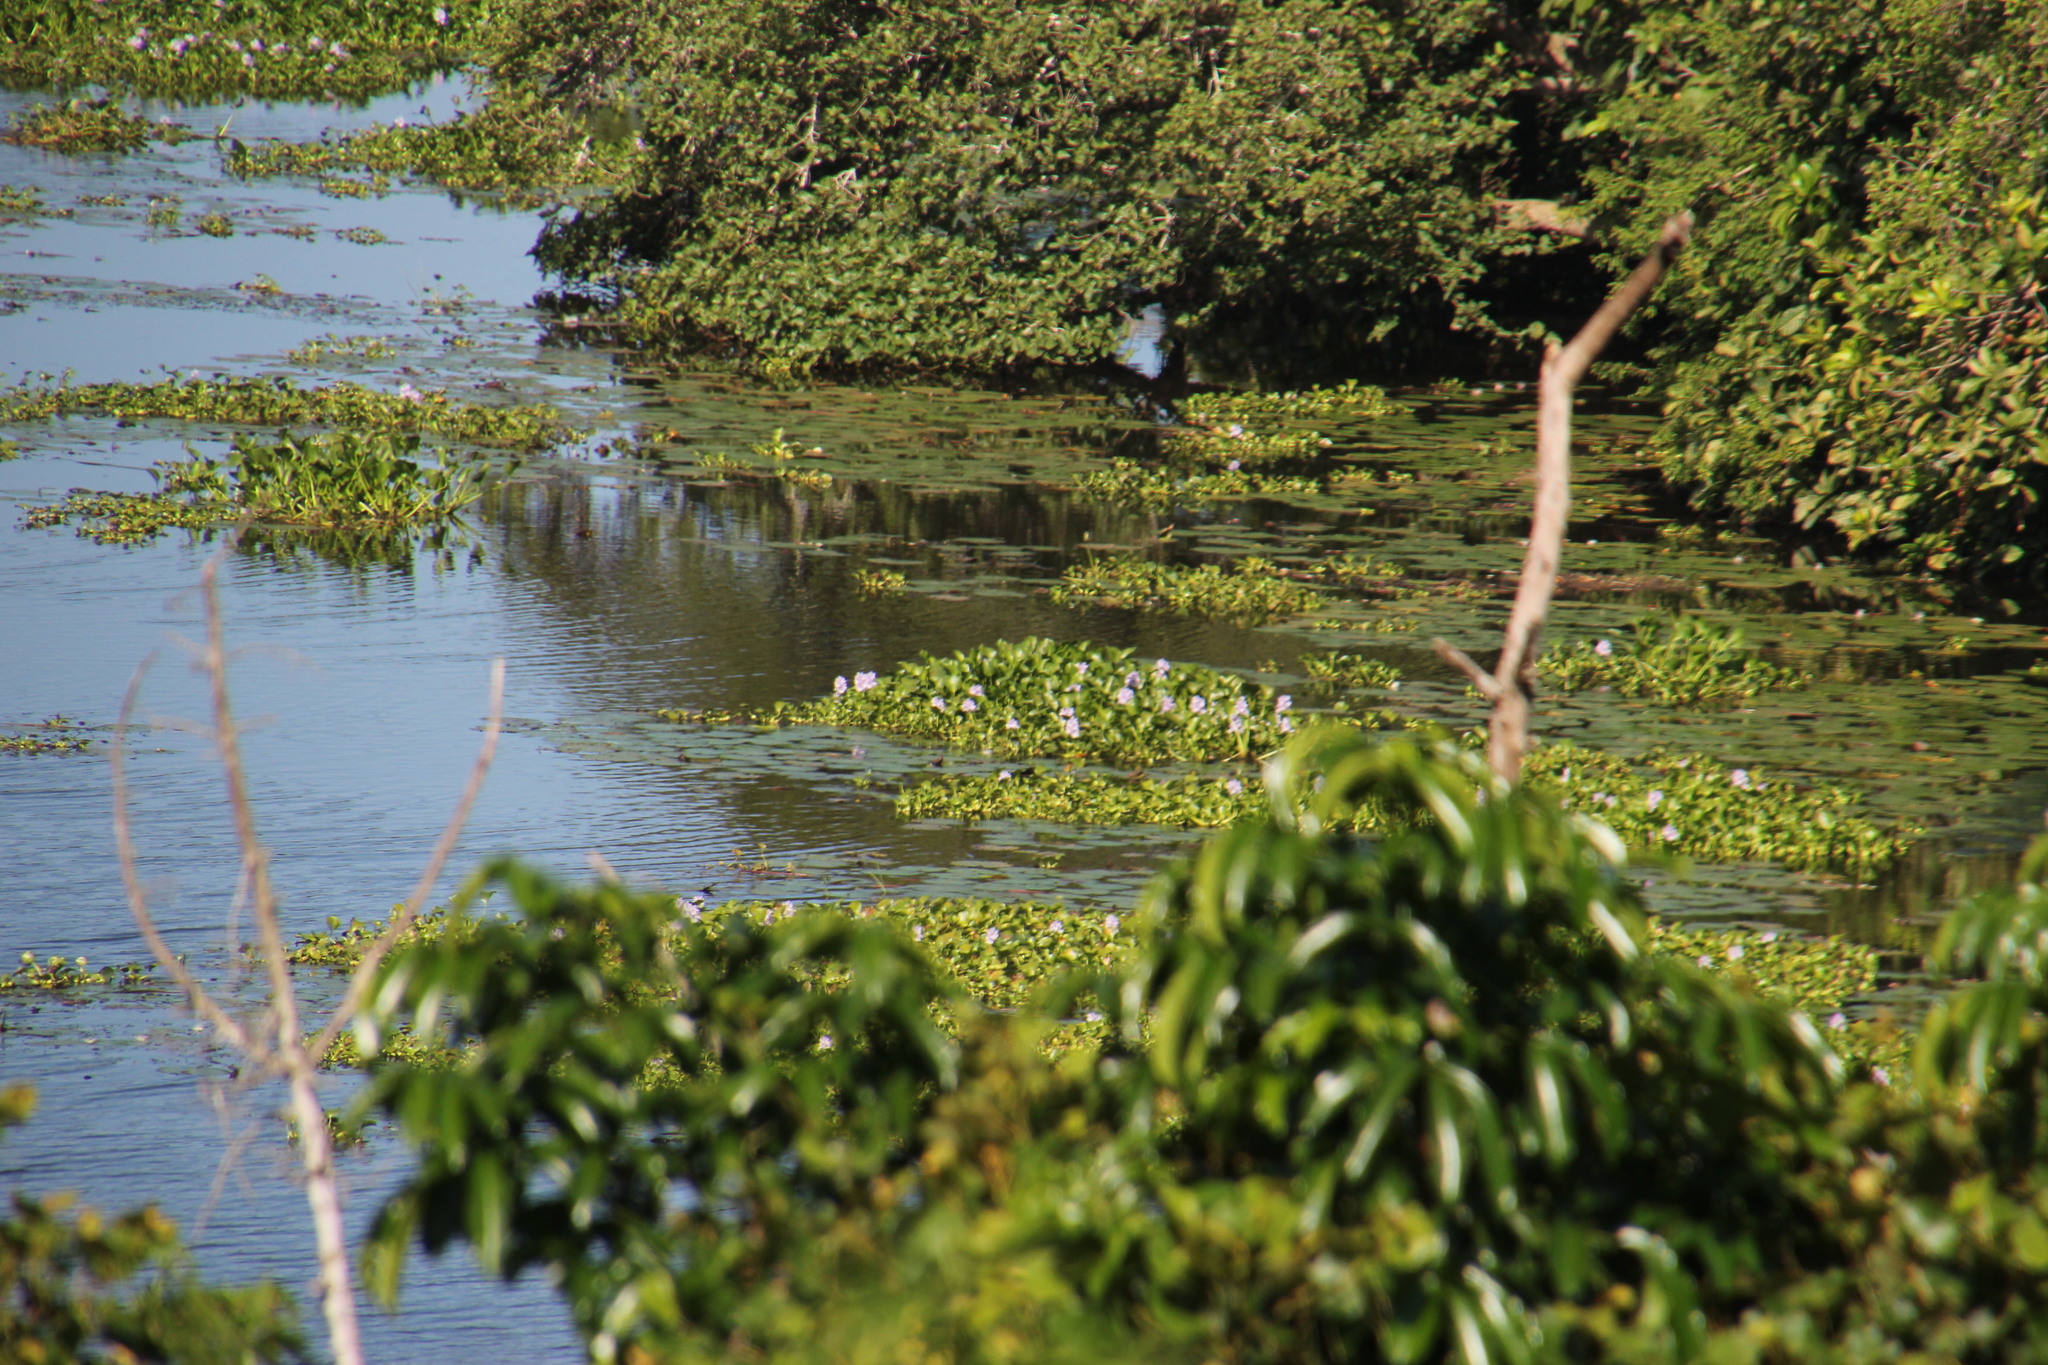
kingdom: Plantae
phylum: Tracheophyta
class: Liliopsida
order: Commelinales
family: Pontederiaceae
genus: Pontederia
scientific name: Pontederia crassipes
